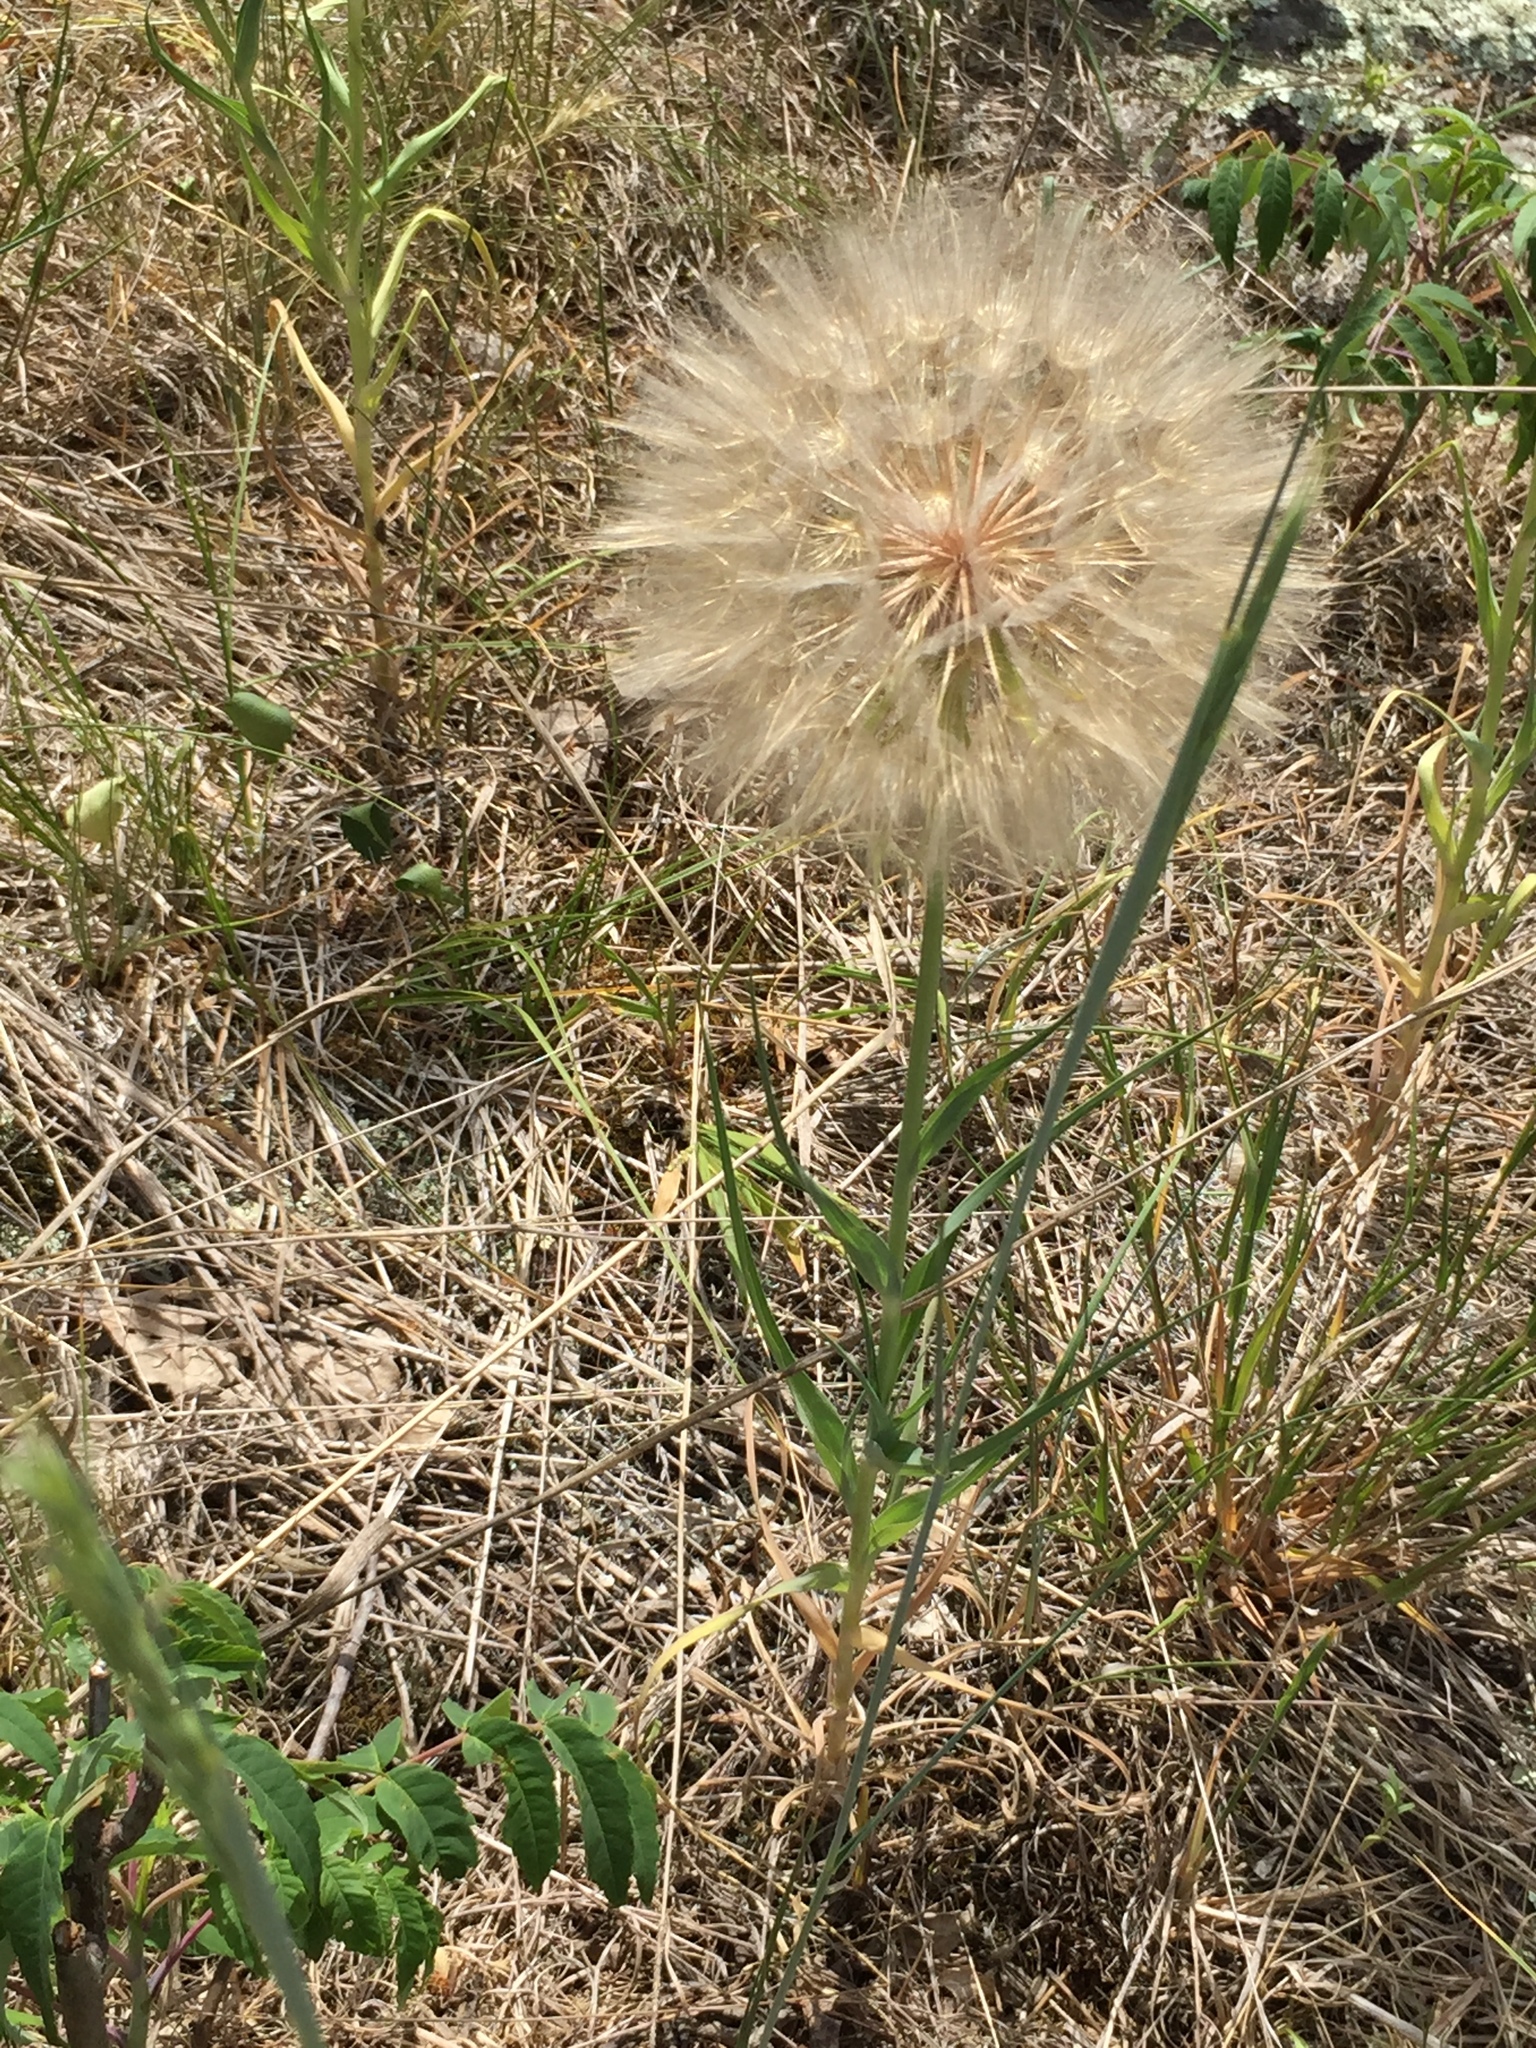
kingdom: Plantae
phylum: Tracheophyta
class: Magnoliopsida
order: Asterales
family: Asteraceae
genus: Tragopogon
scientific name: Tragopogon dubius
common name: Yellow salsify
